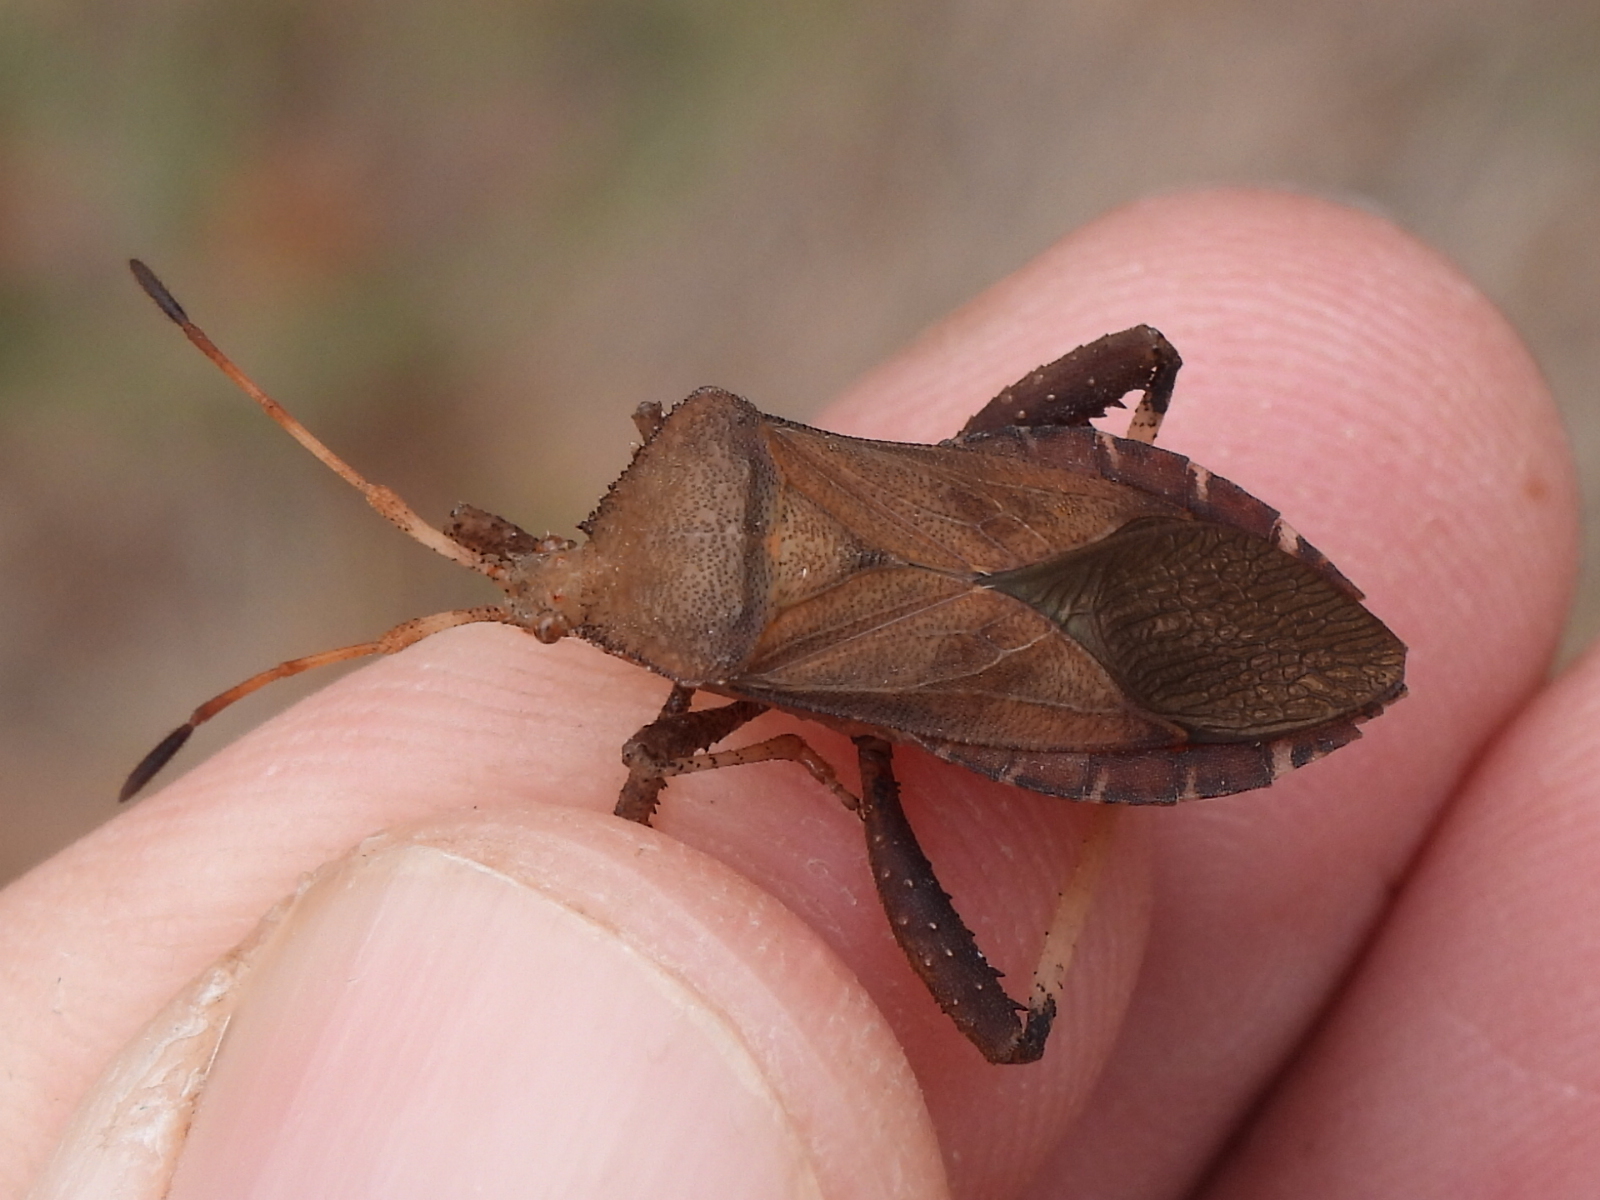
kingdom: Animalia
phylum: Arthropoda
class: Insecta
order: Hemiptera
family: Coreidae
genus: Euthochtha
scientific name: Euthochtha galeator
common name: Helmeted squash bug
